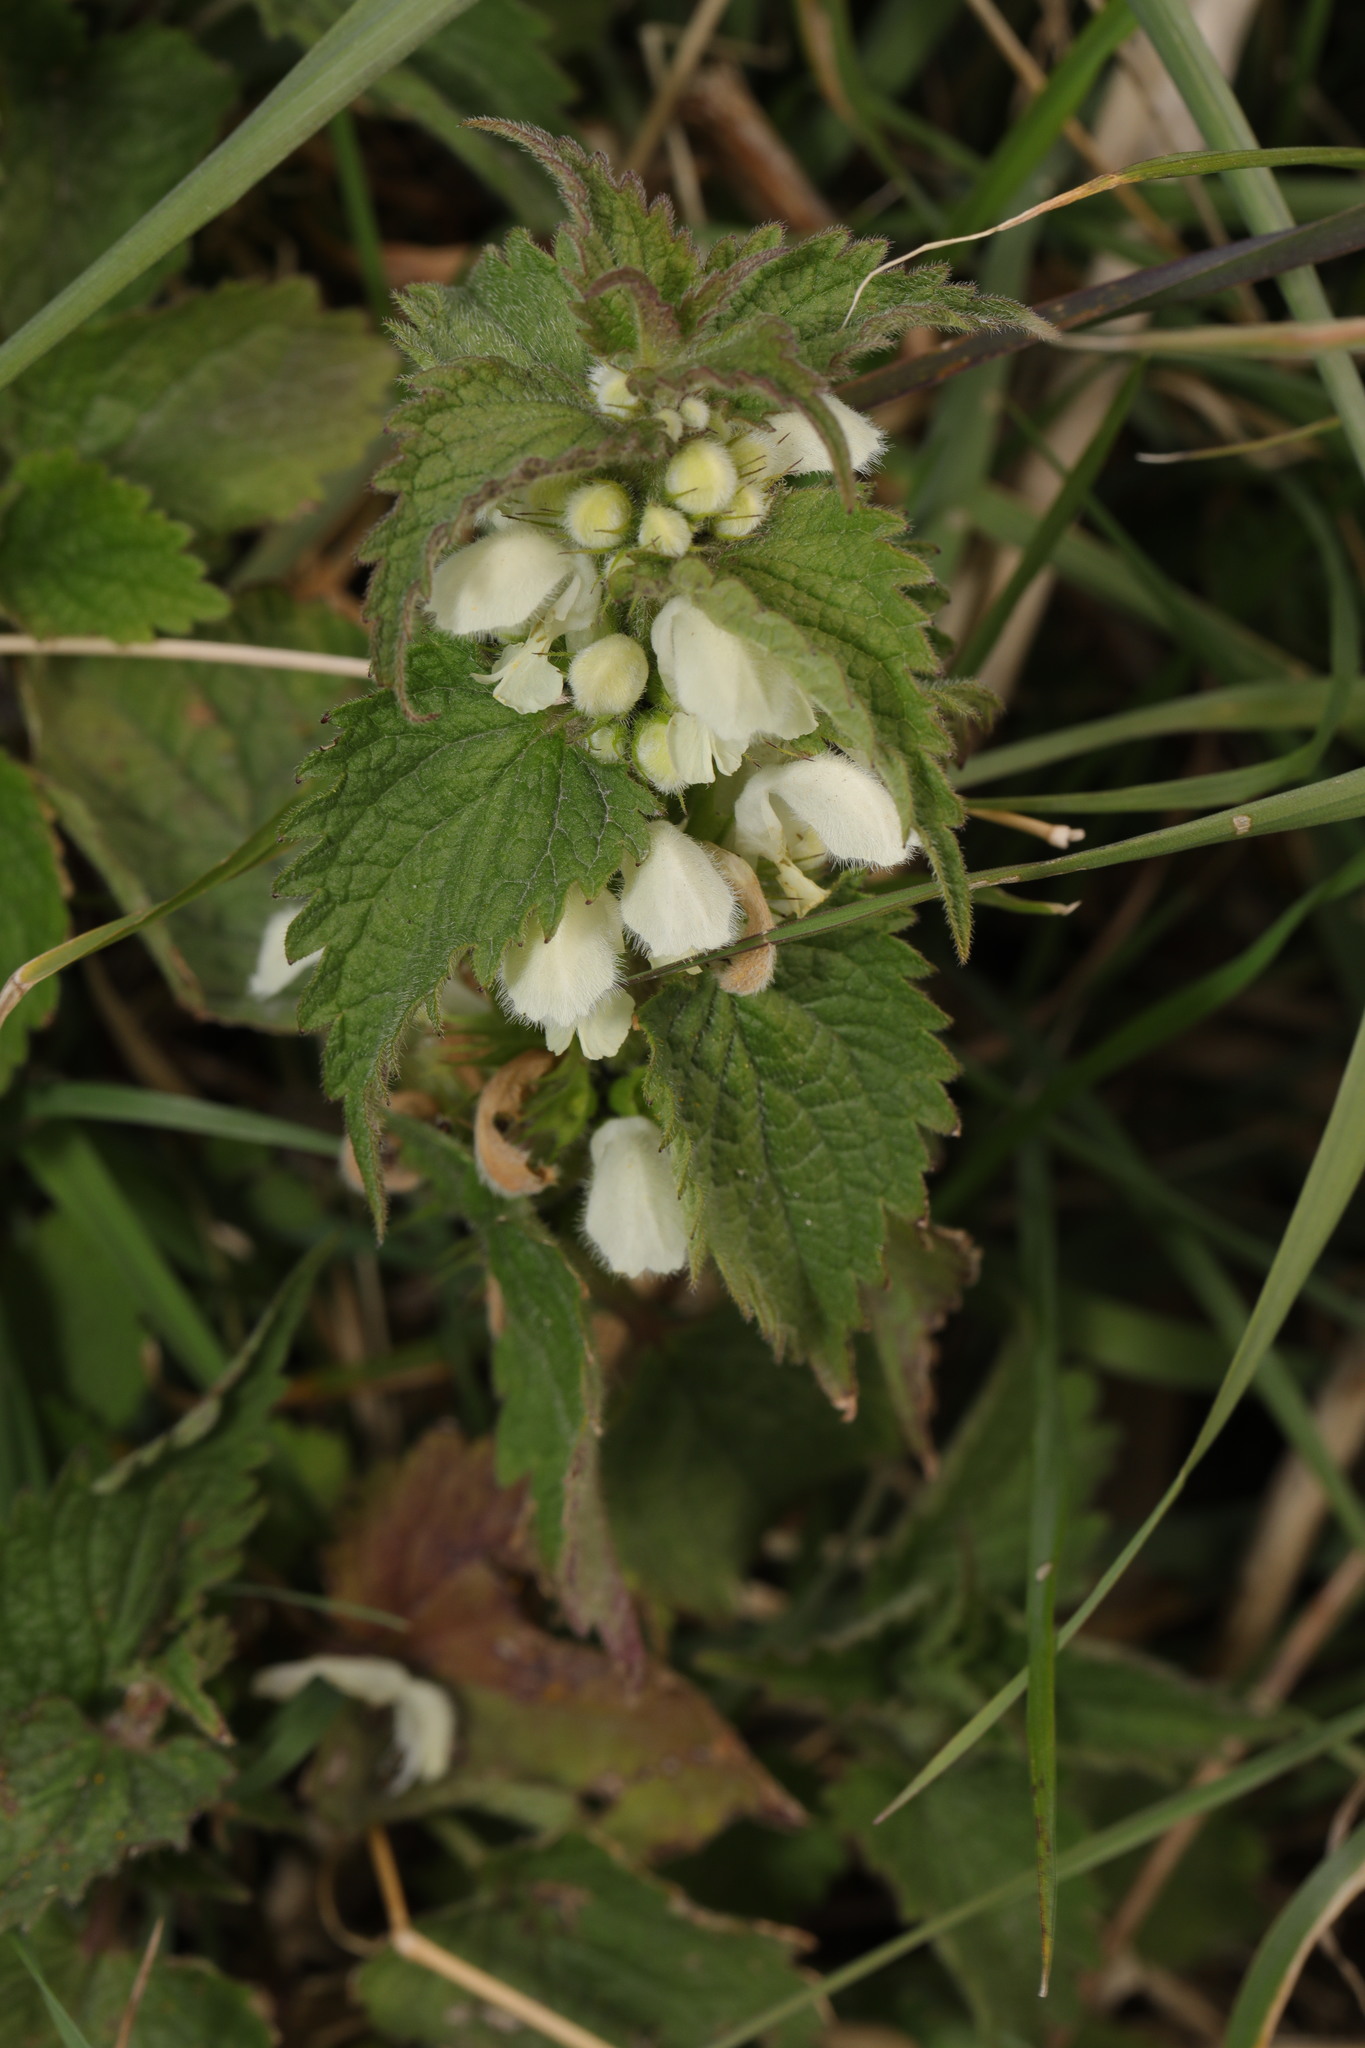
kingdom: Plantae
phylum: Tracheophyta
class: Magnoliopsida
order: Lamiales
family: Lamiaceae
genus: Lamium
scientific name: Lamium album
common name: White dead-nettle
